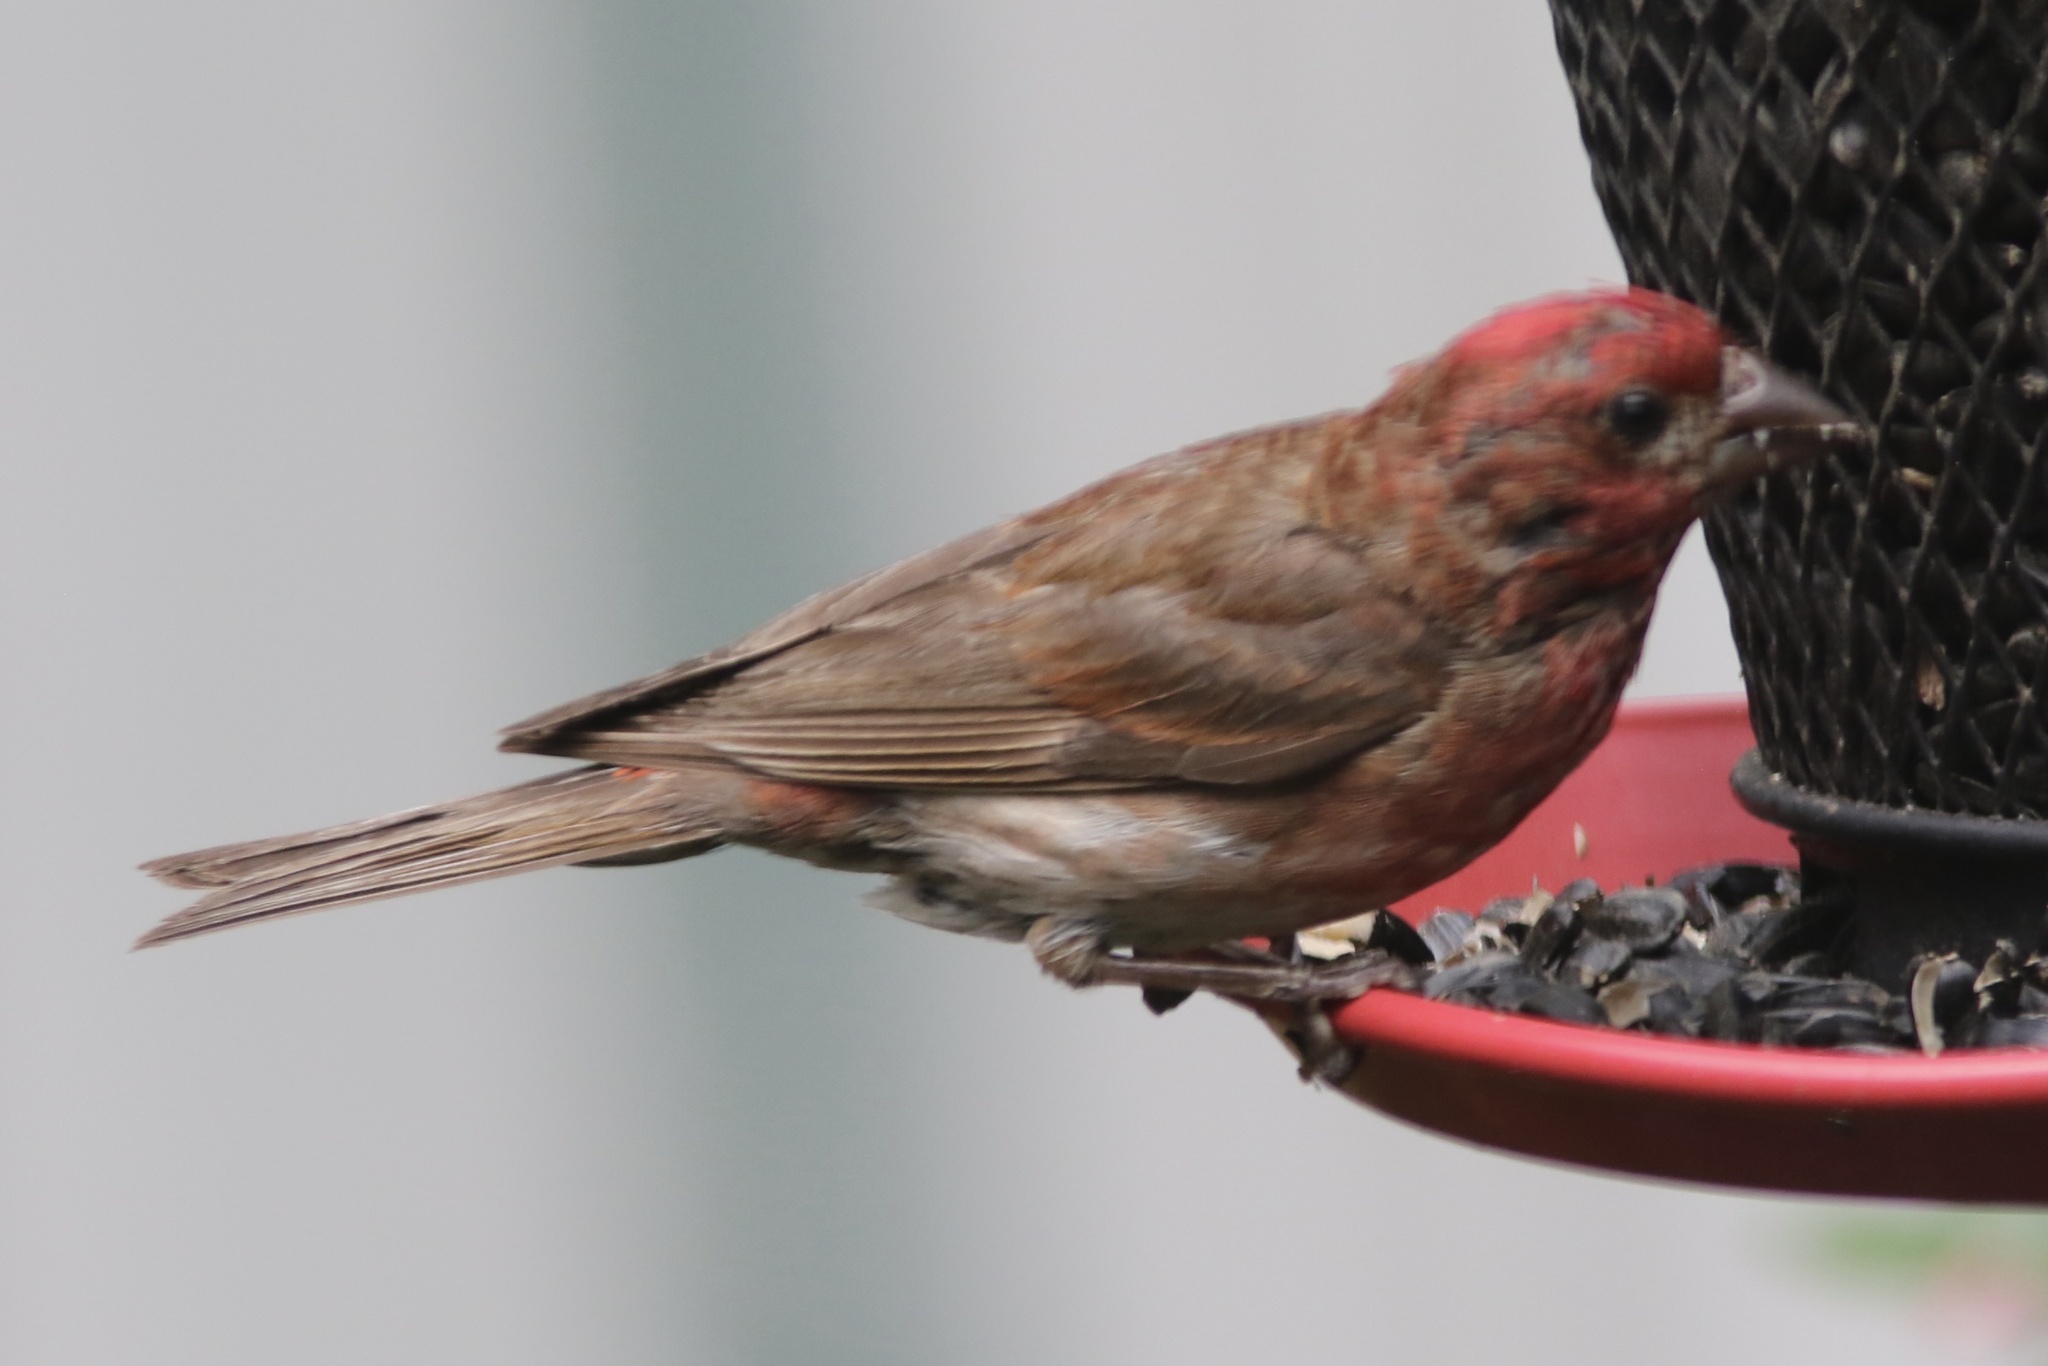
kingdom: Animalia
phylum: Chordata
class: Aves
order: Passeriformes
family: Fringillidae
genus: Haemorhous
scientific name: Haemorhous purpureus
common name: Purple finch
